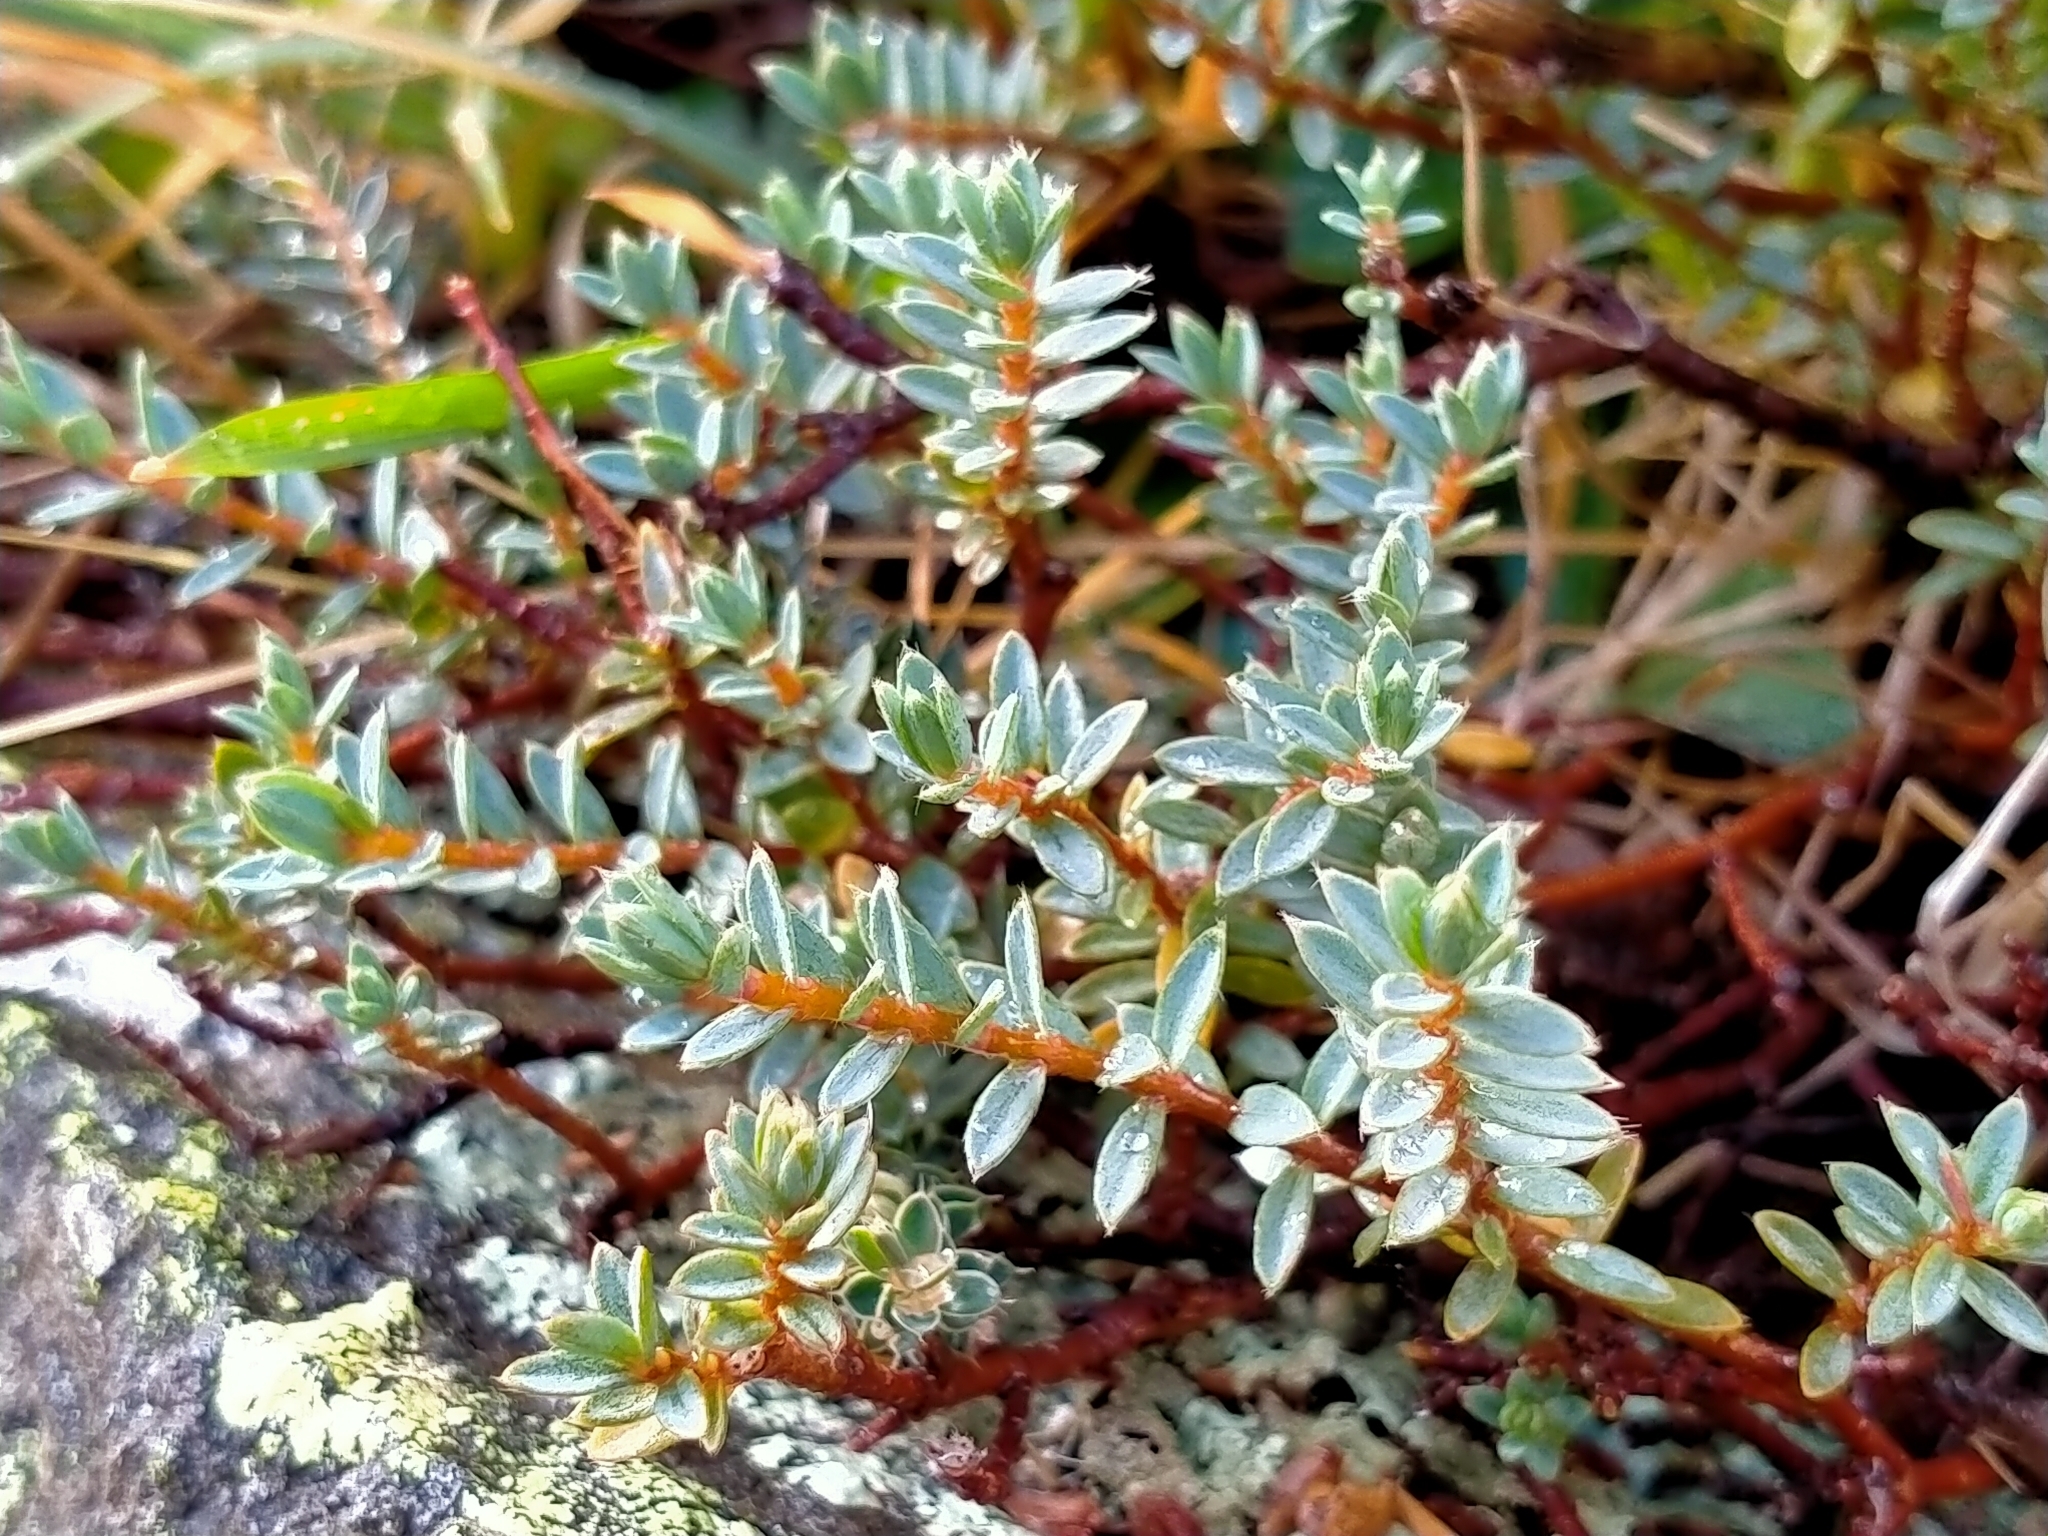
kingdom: Plantae
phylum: Tracheophyta
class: Magnoliopsida
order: Malvales
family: Thymelaeaceae
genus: Pimelea
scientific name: Pimelea oreophila
